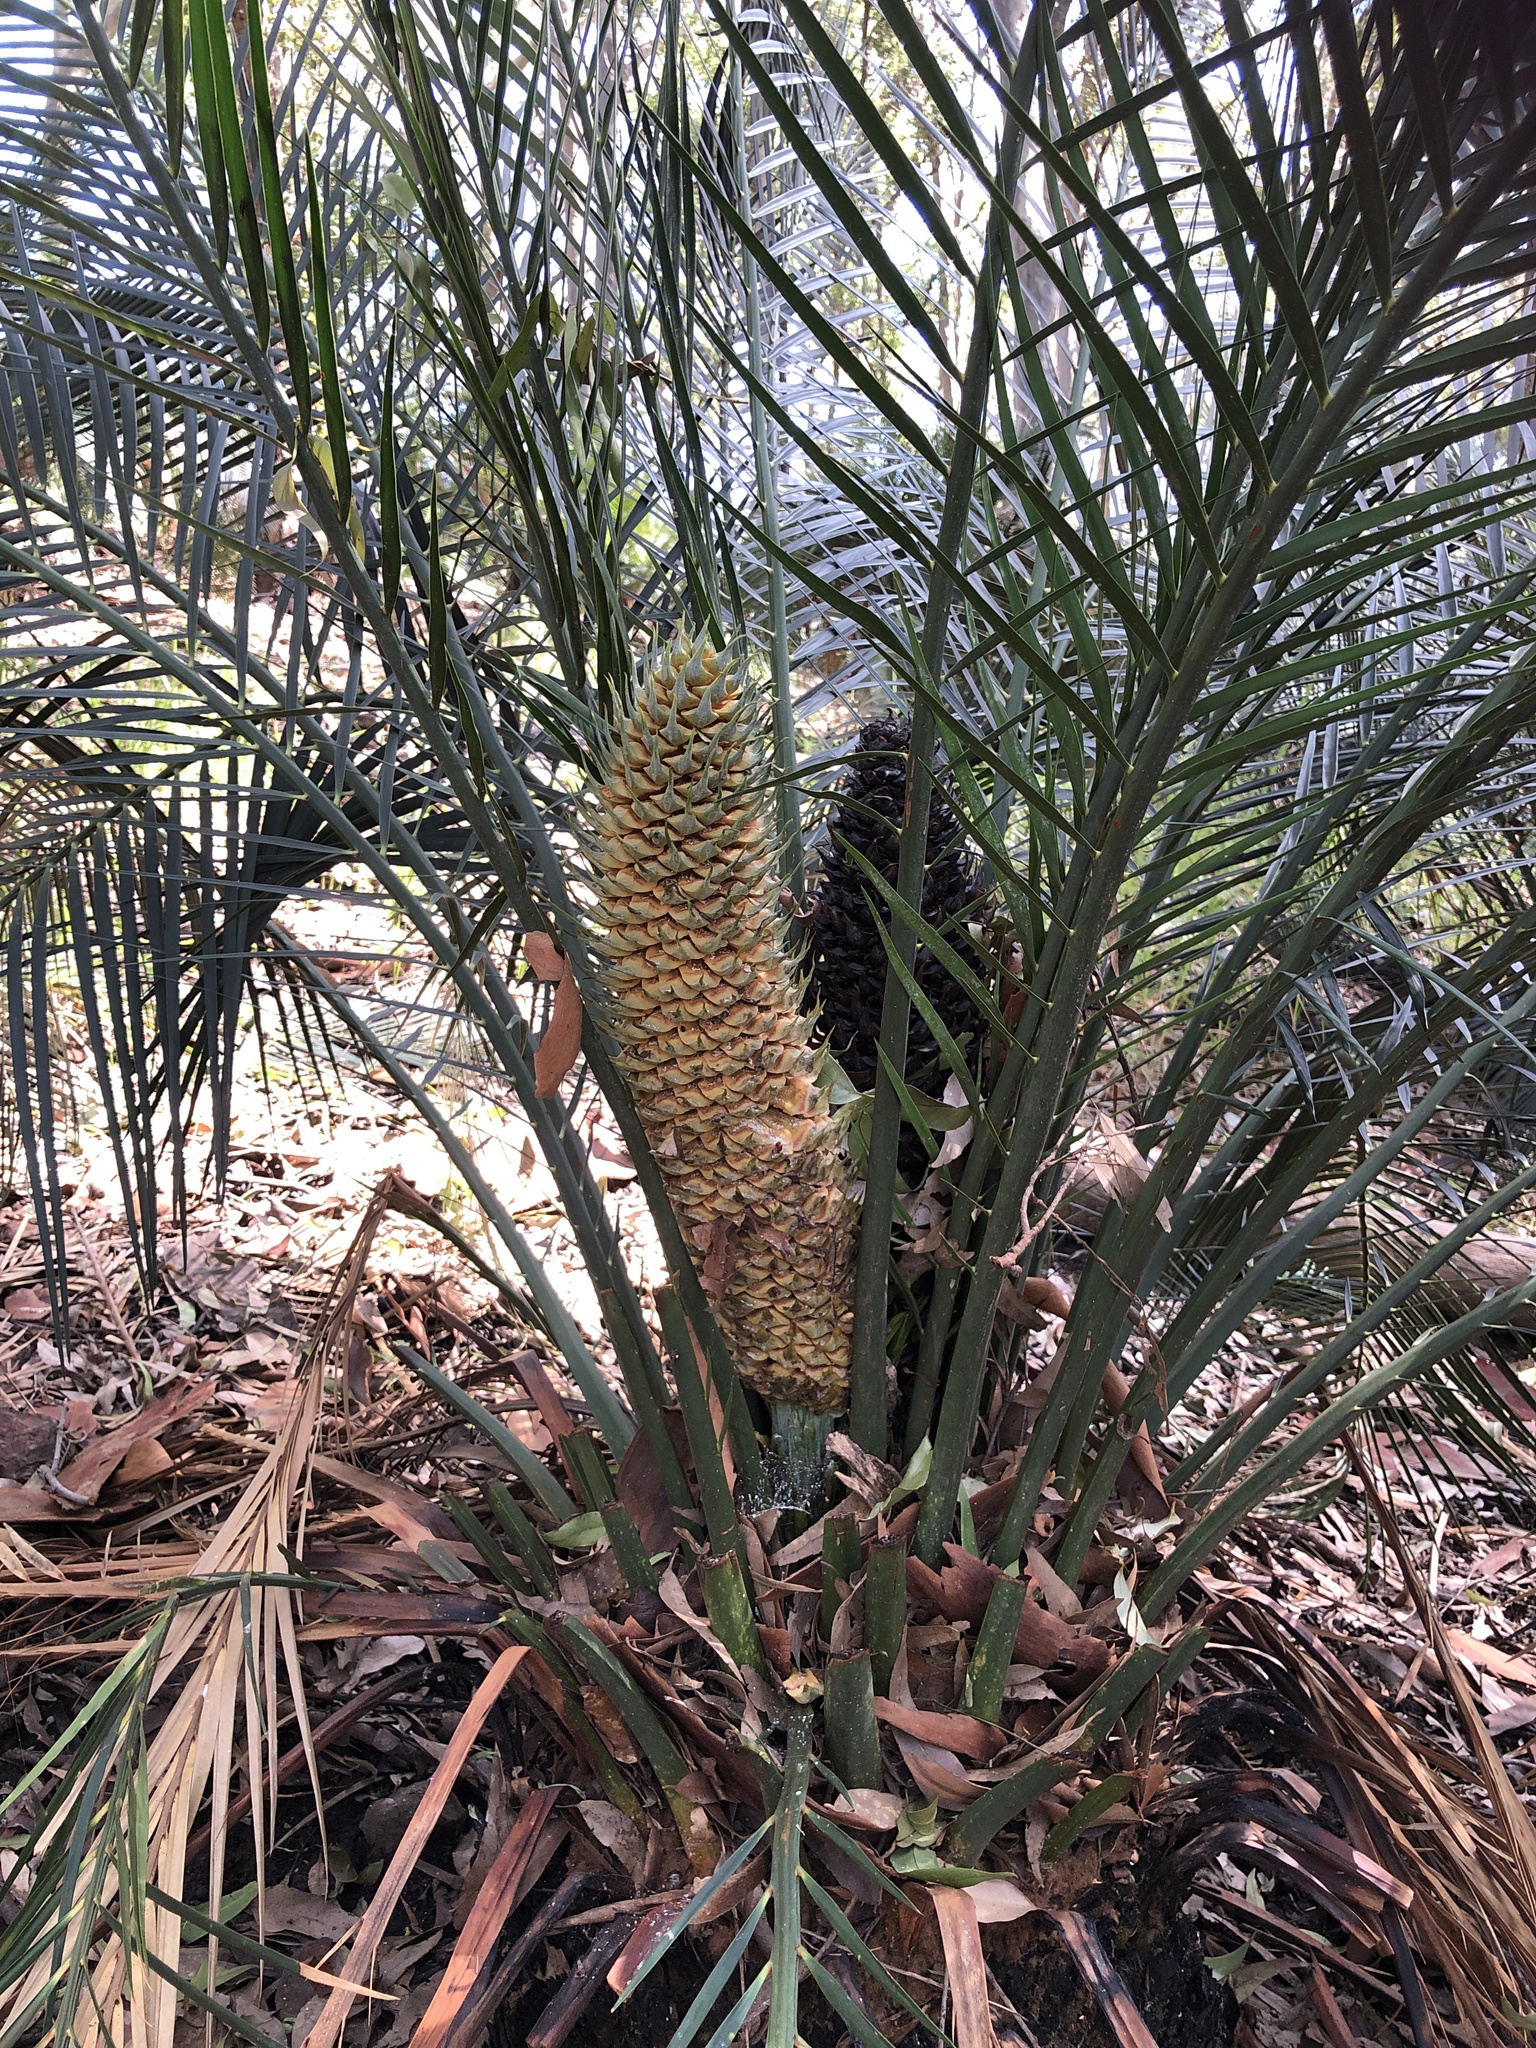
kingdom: Plantae
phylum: Tracheophyta
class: Cycadopsida
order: Cycadales
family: Zamiaceae
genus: Macrozamia
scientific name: Macrozamia communis
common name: Burrawong
